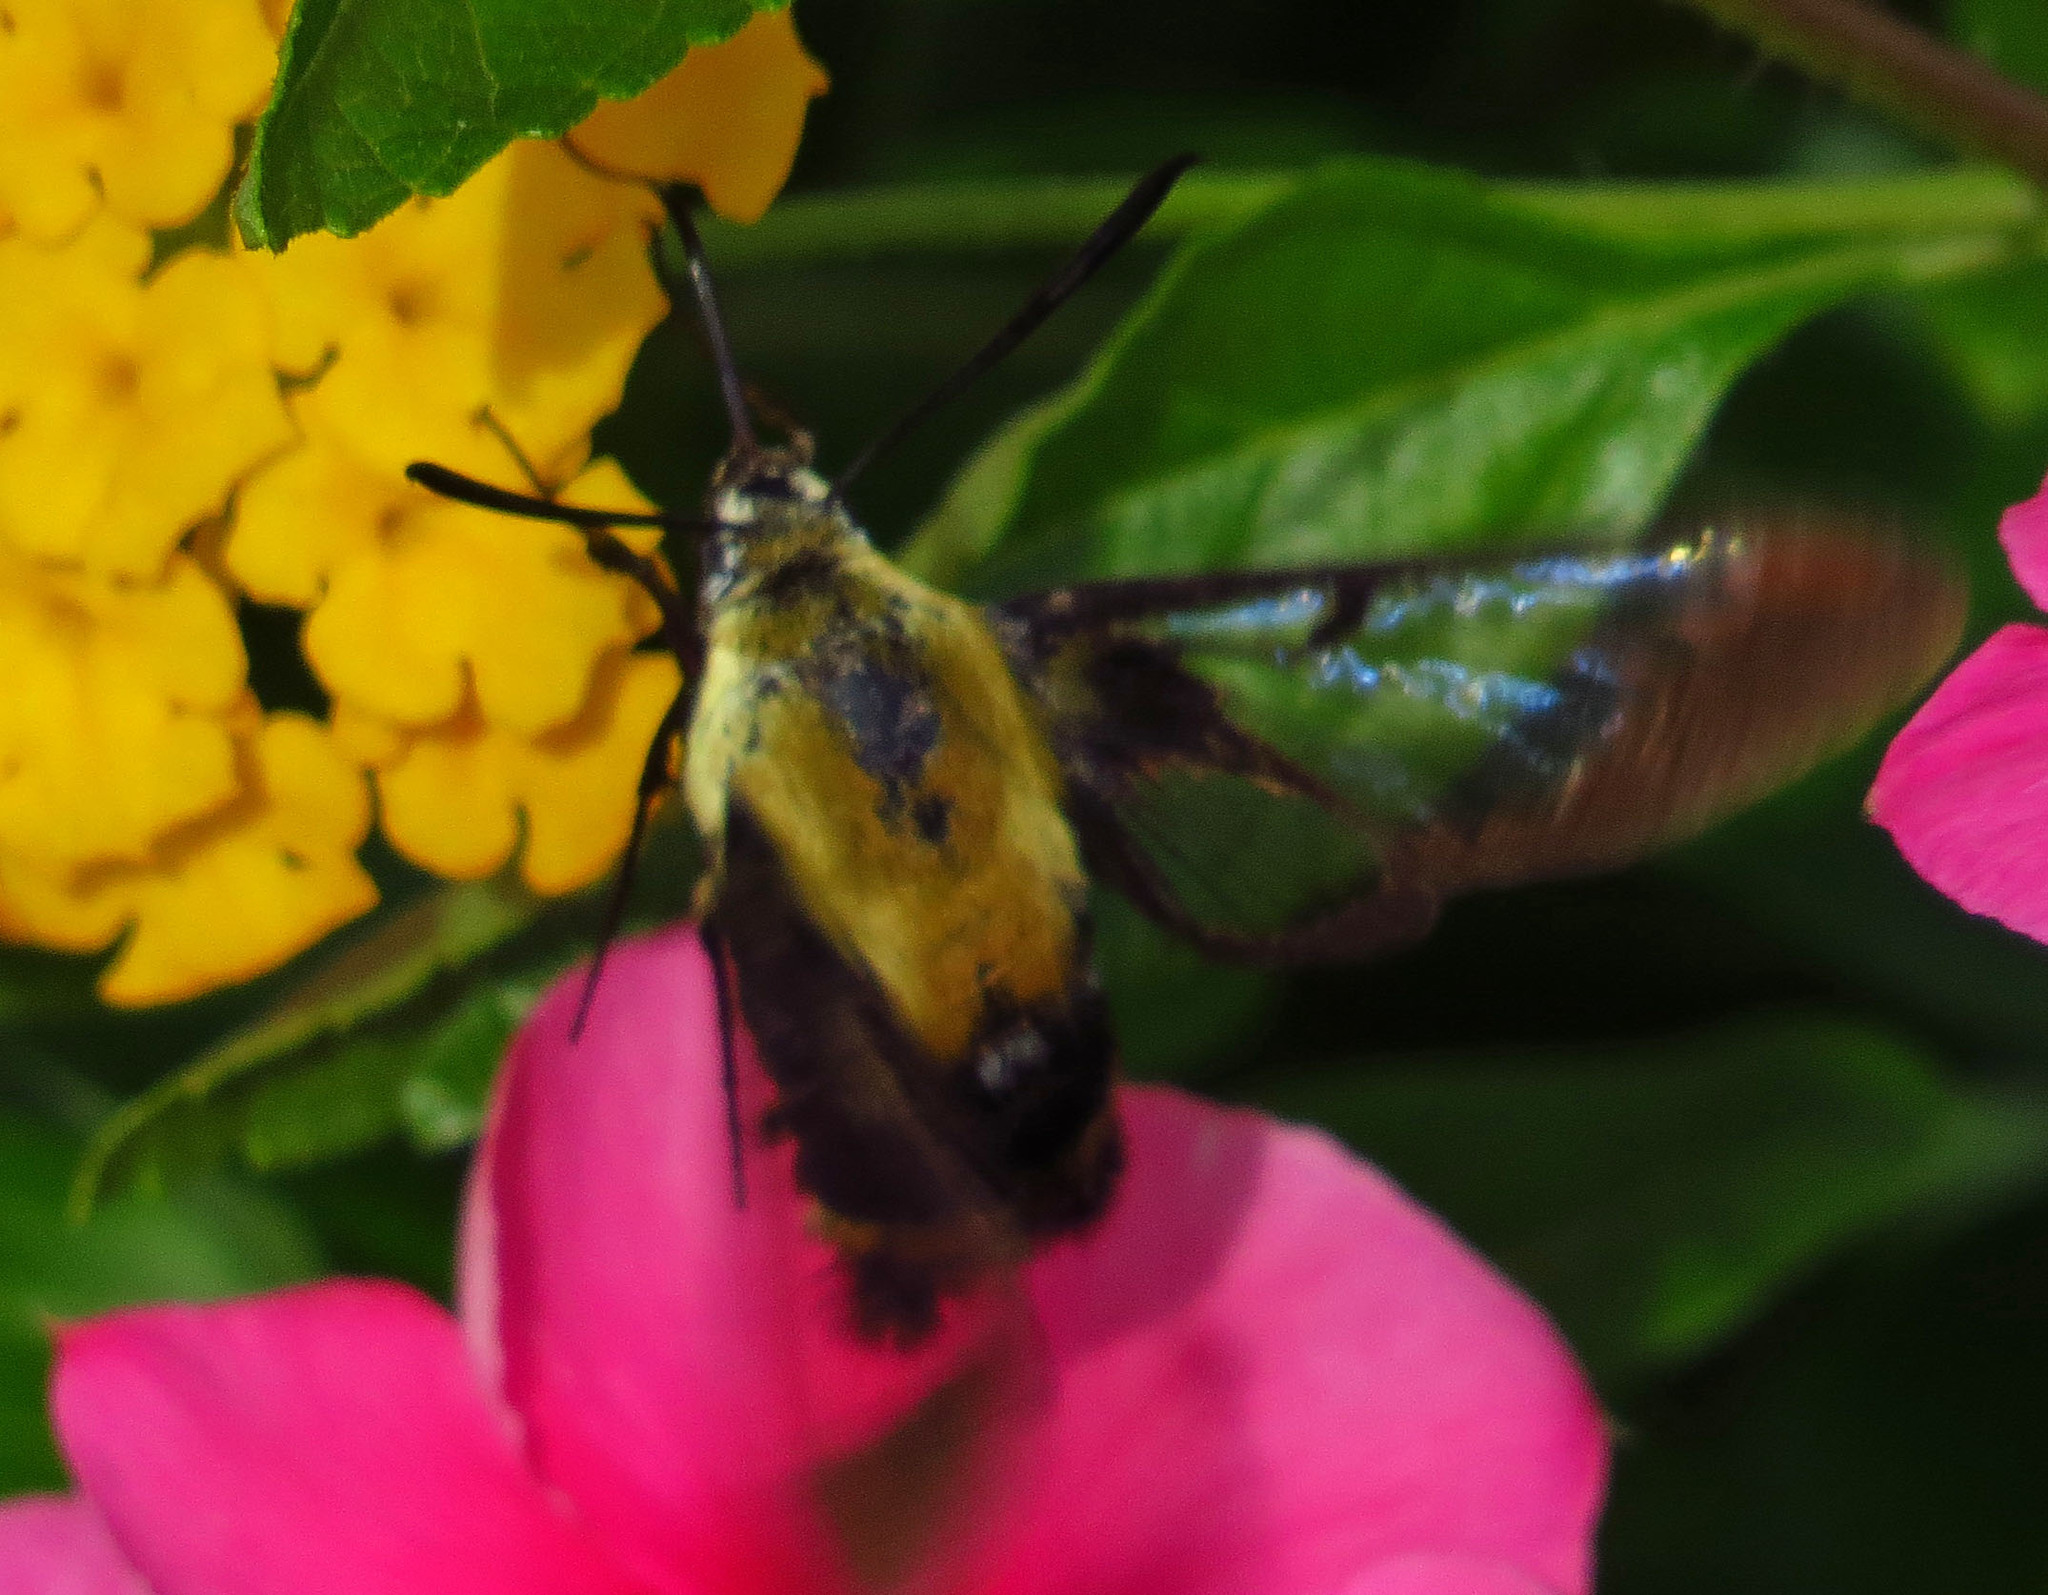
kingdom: Animalia
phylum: Arthropoda
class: Insecta
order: Lepidoptera
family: Sphingidae
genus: Hemaris
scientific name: Hemaris diffinis
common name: Bumblebee moth
